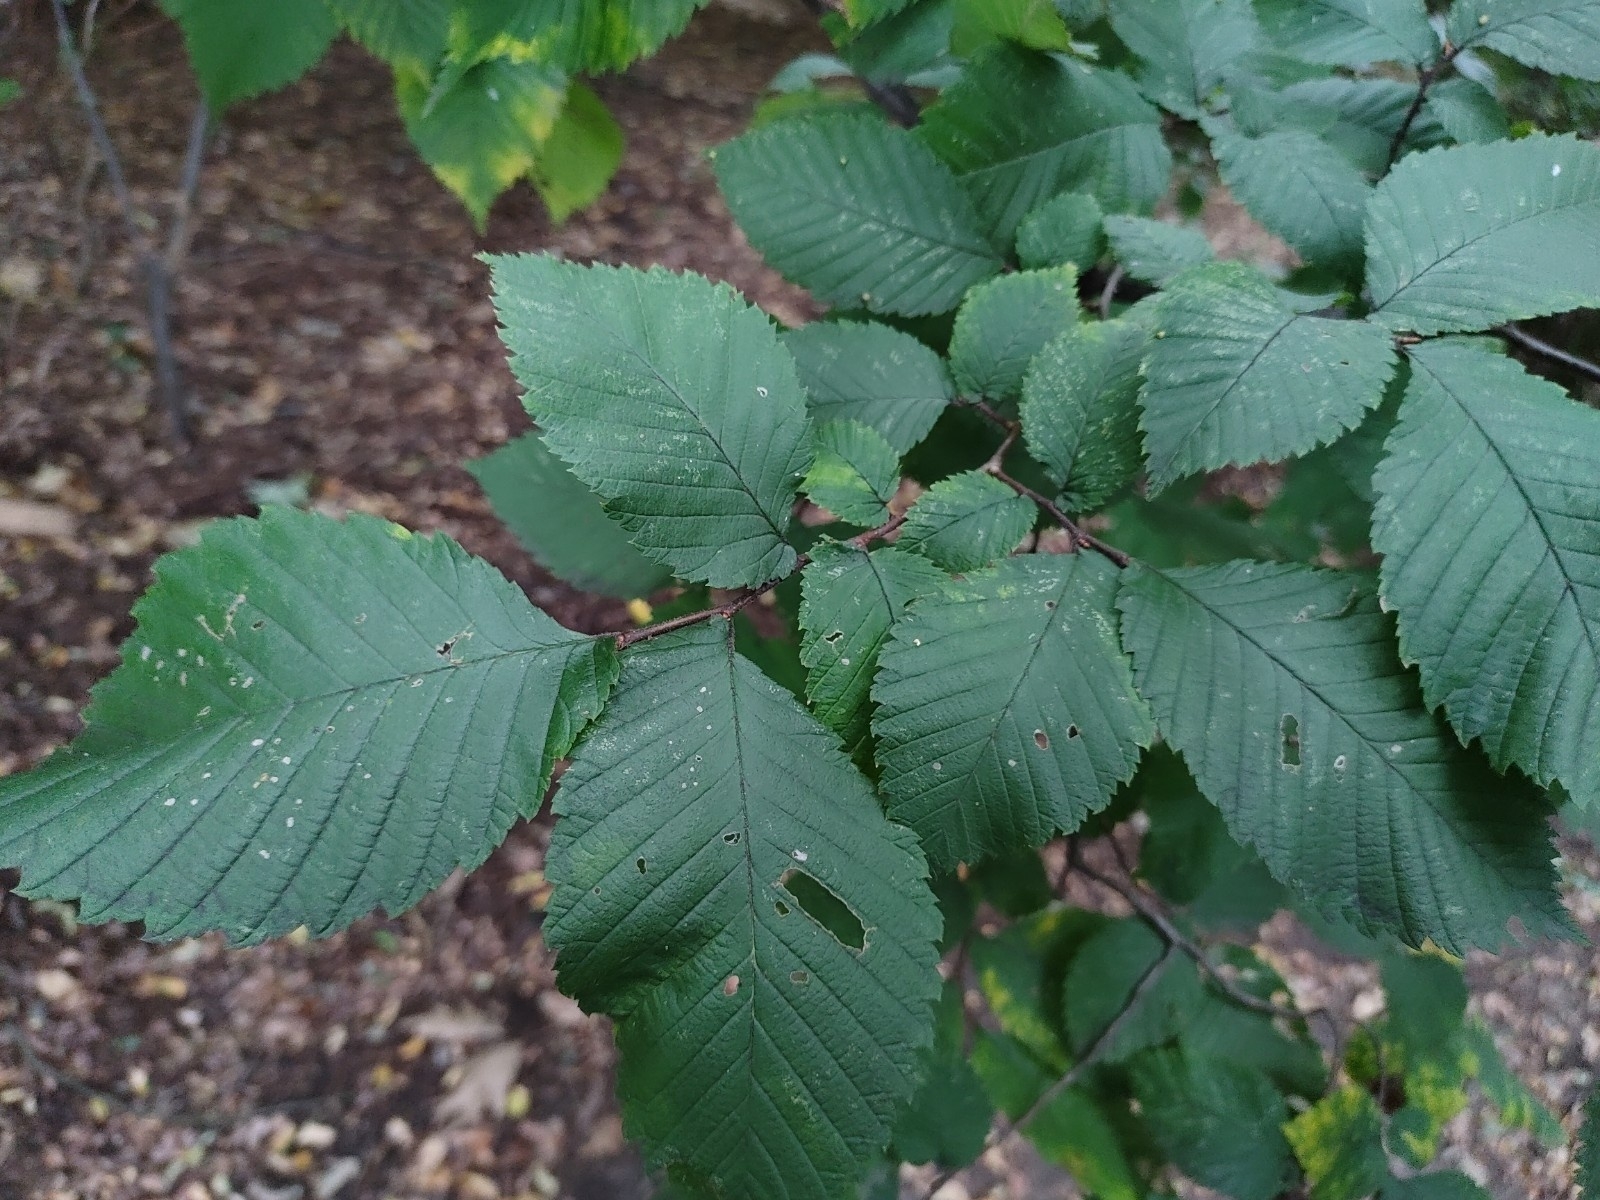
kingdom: Plantae
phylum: Tracheophyta
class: Magnoliopsida
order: Rosales
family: Ulmaceae
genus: Ulmus
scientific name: Ulmus laevis
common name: European white-elm
